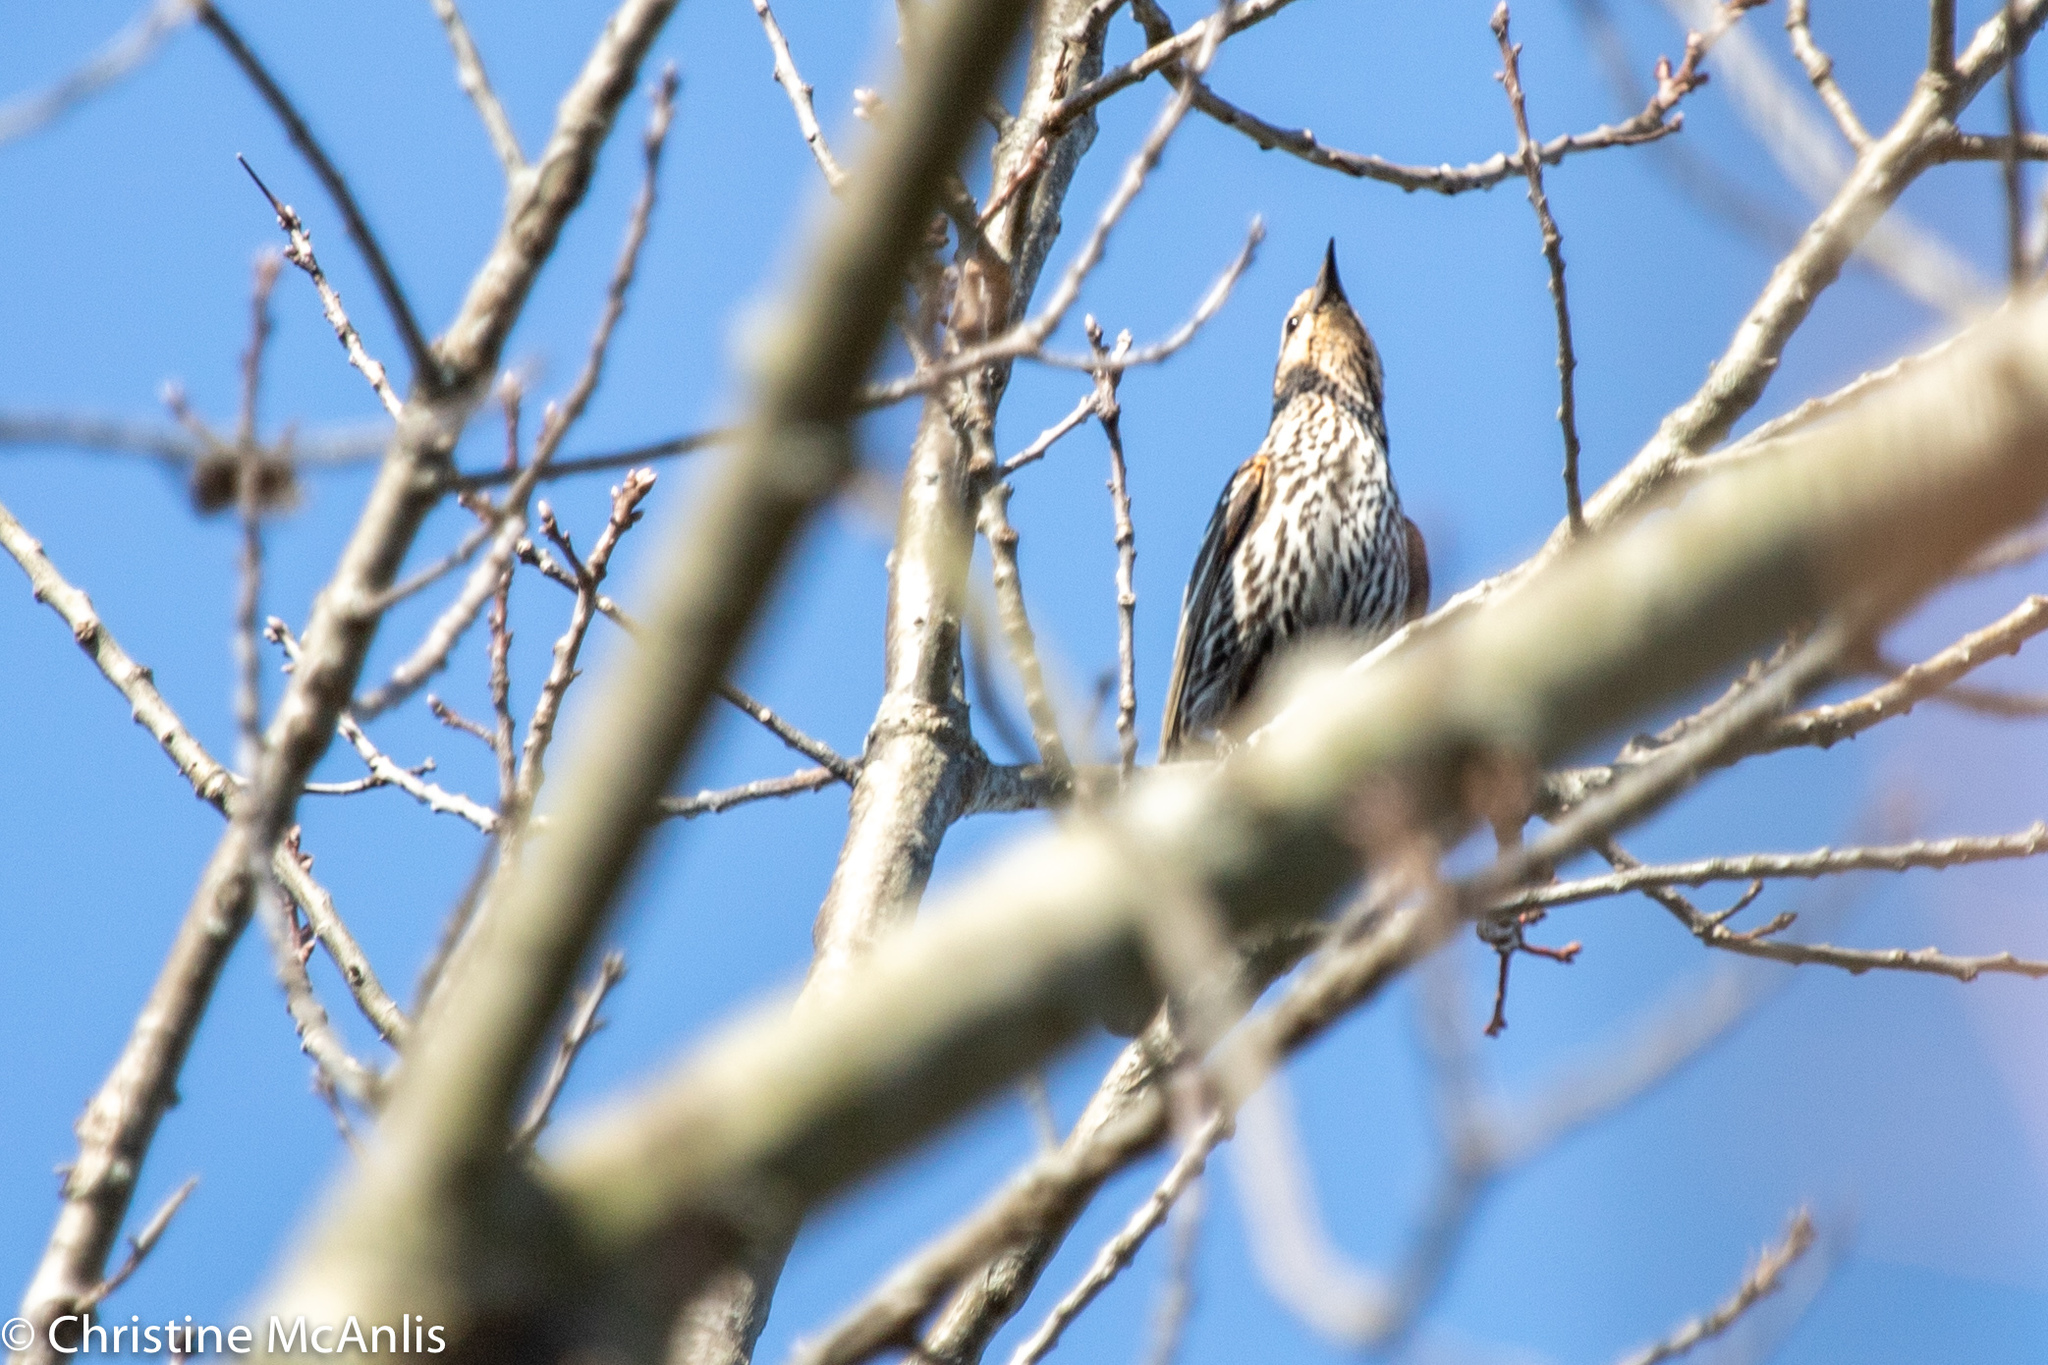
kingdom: Animalia
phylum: Chordata
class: Aves
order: Passeriformes
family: Icteridae
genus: Agelaius
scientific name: Agelaius phoeniceus
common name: Red-winged blackbird
